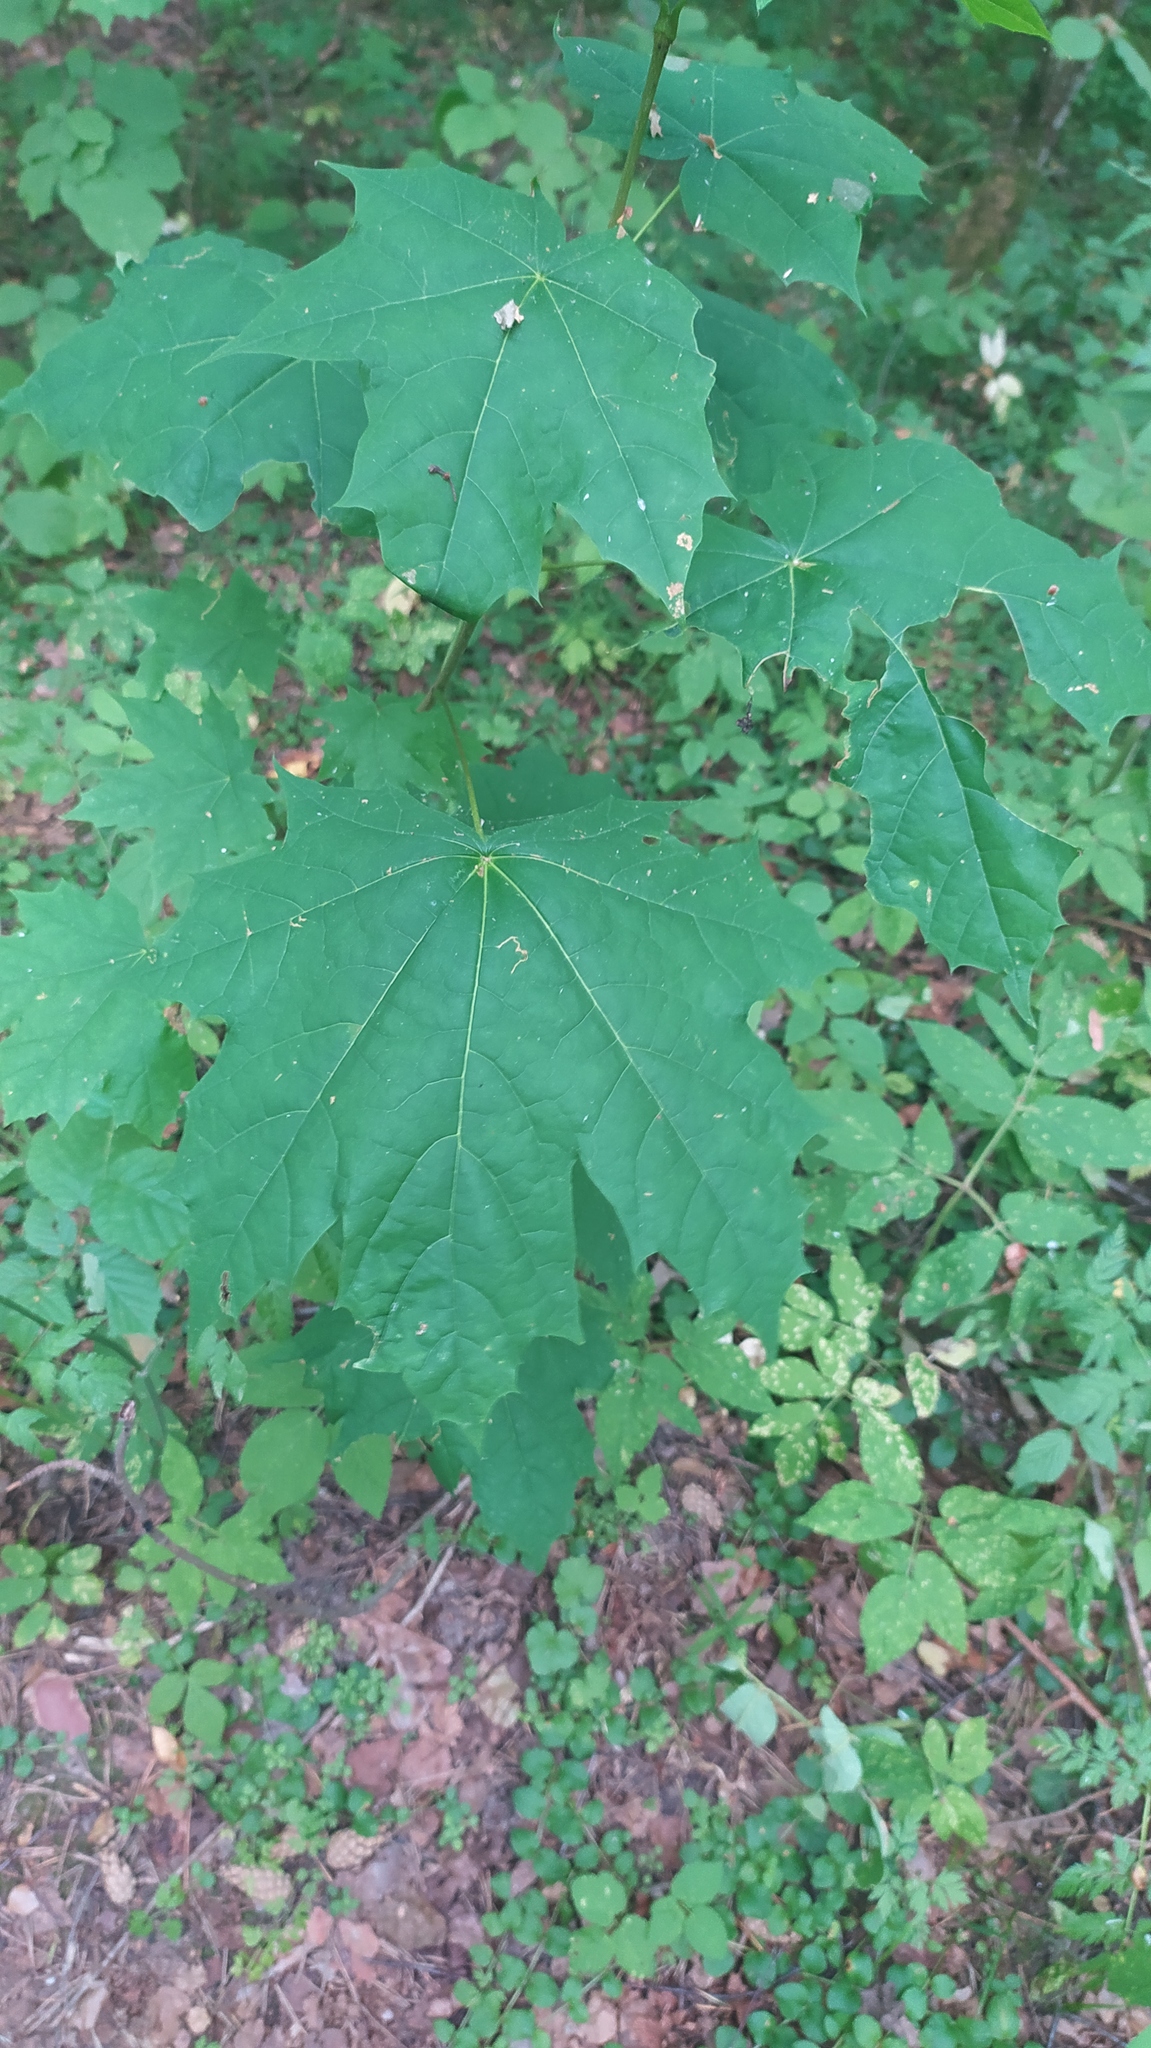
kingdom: Plantae
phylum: Tracheophyta
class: Magnoliopsida
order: Sapindales
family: Sapindaceae
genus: Acer
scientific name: Acer platanoides
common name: Norway maple
